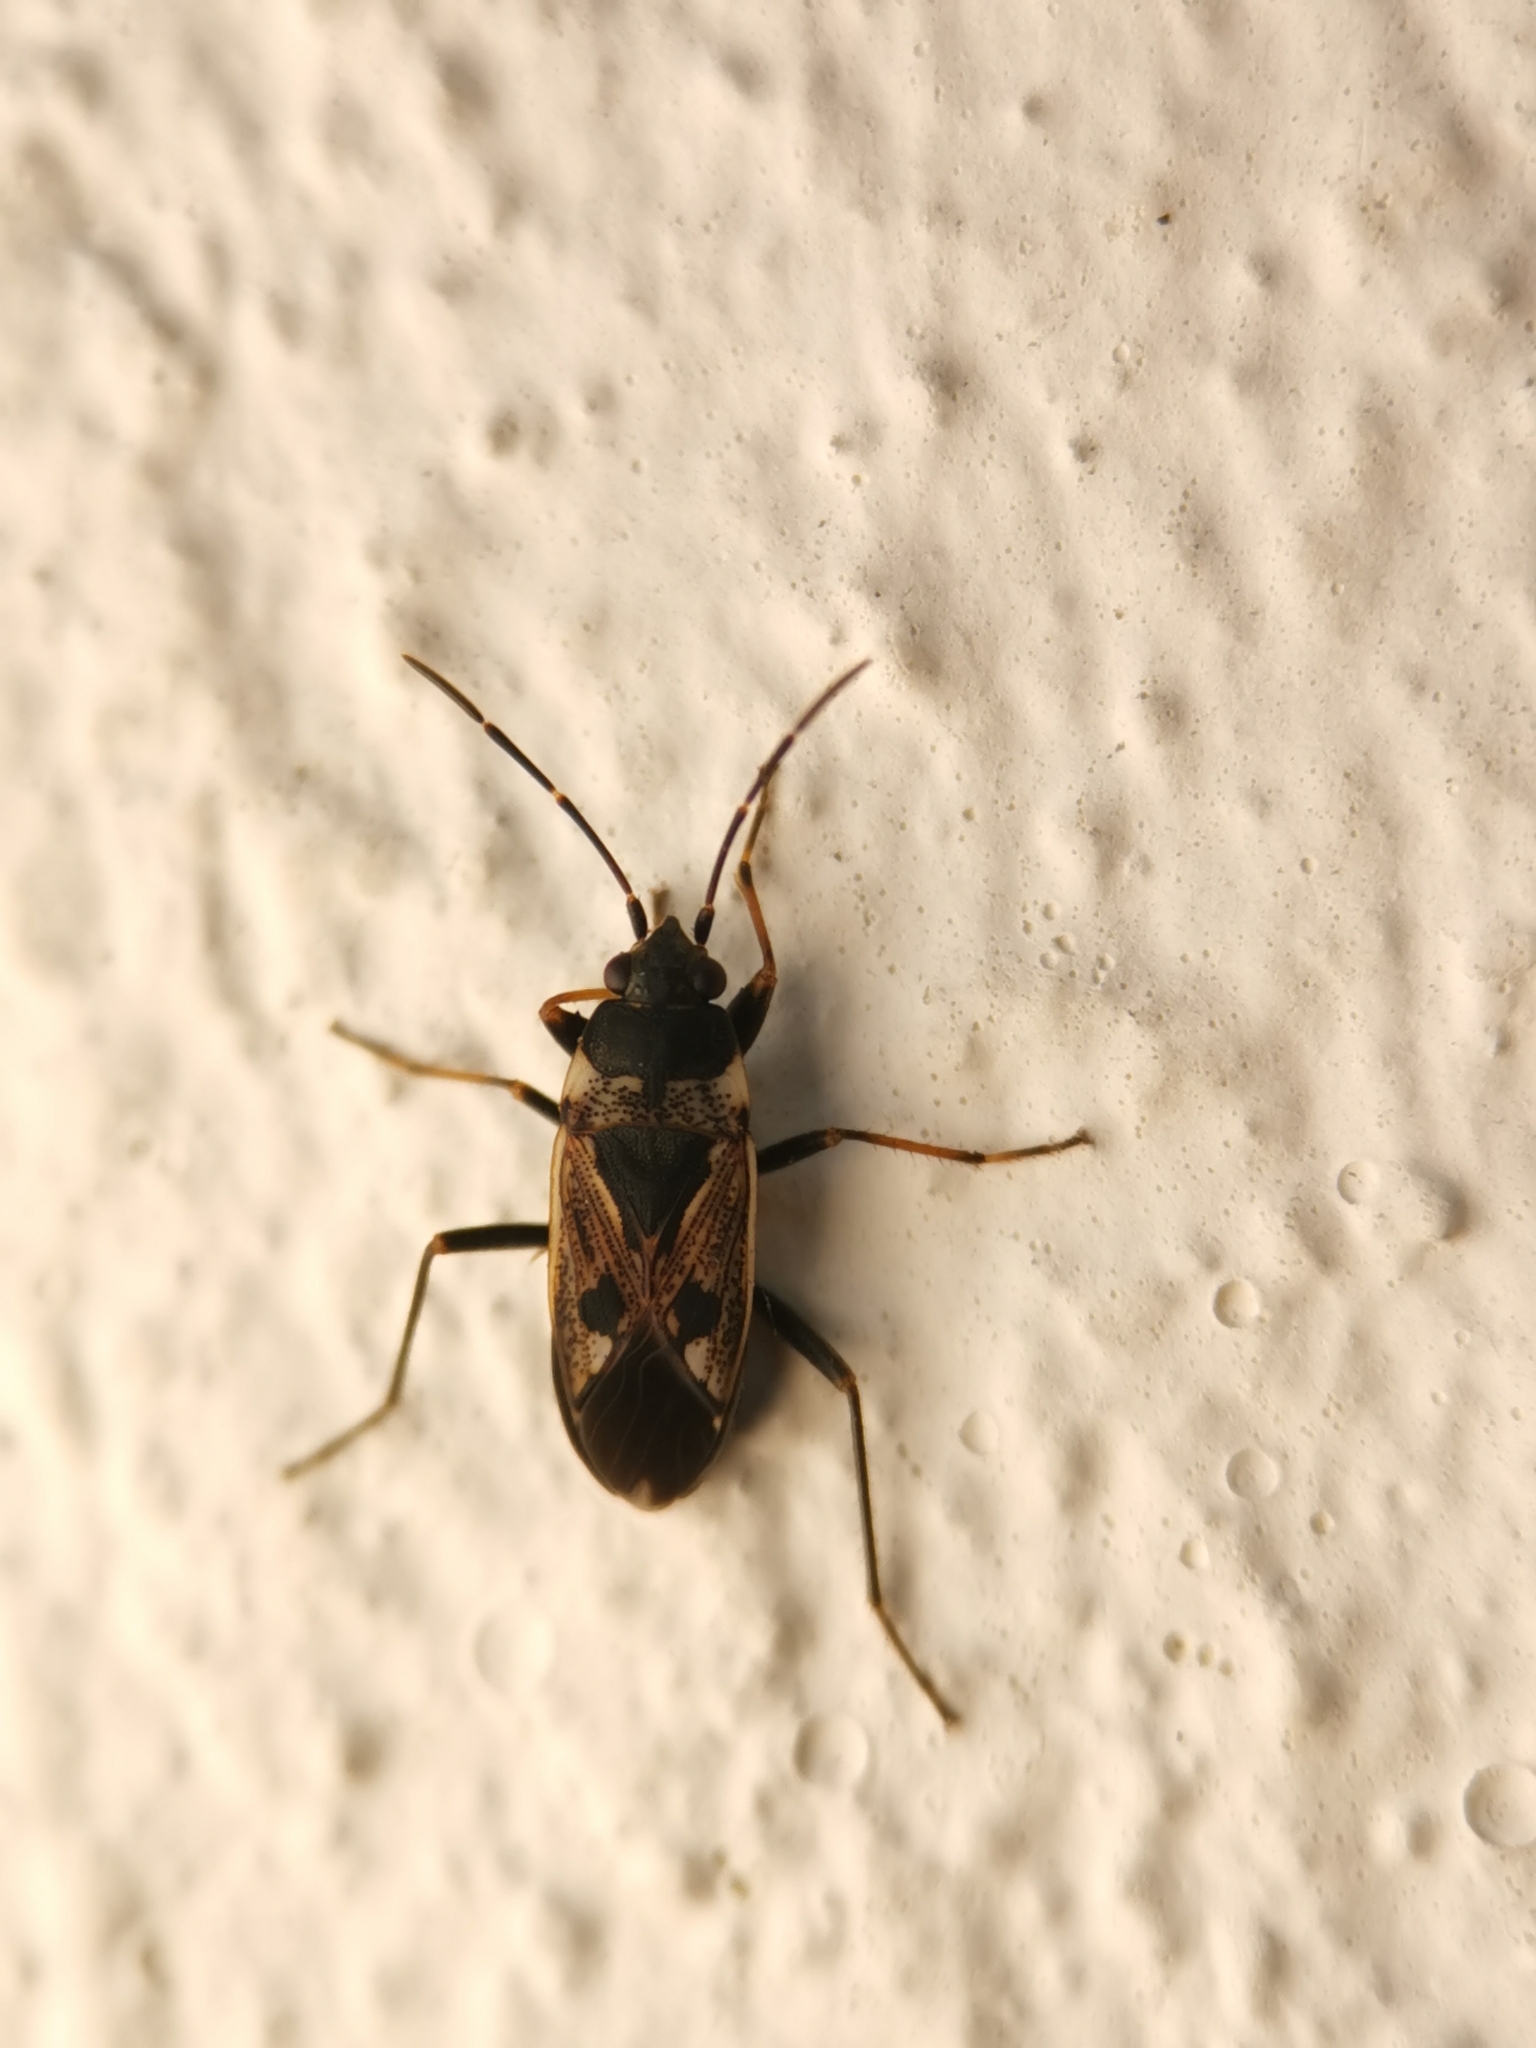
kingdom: Animalia
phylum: Arthropoda
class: Insecta
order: Hemiptera
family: Rhyparochromidae
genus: Rhyparochromus
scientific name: Rhyparochromus vulgaris
